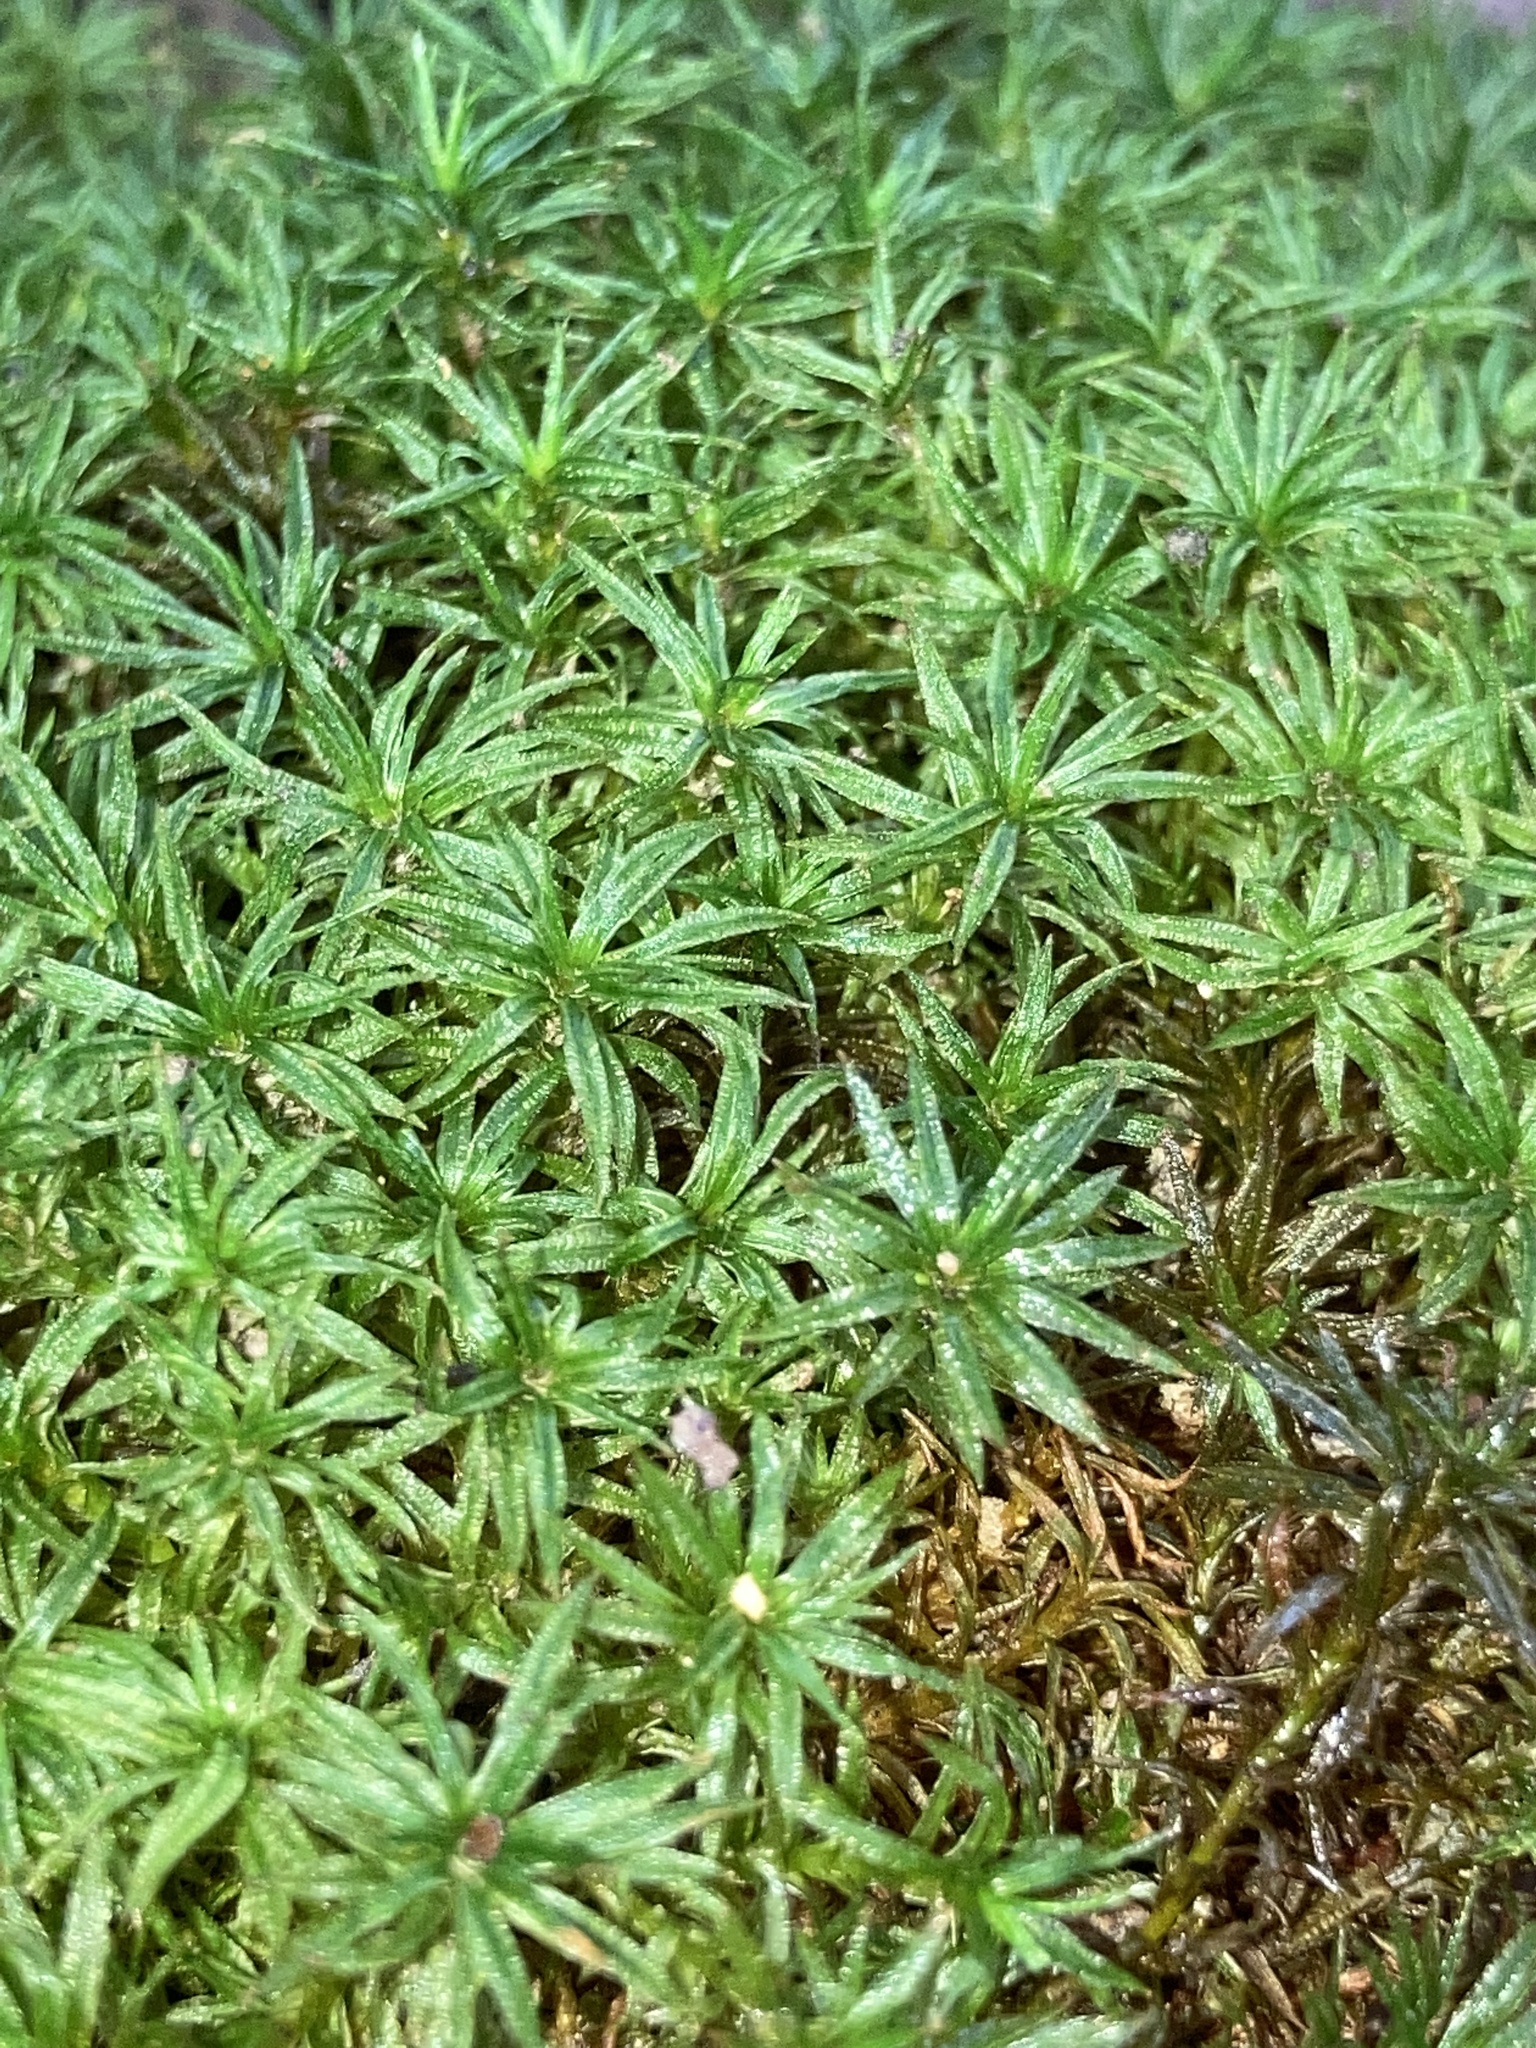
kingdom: Plantae
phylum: Bryophyta
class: Polytrichopsida
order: Polytrichales
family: Polytrichaceae
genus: Atrichum
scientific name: Atrichum undulatum
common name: Common smoothcap
